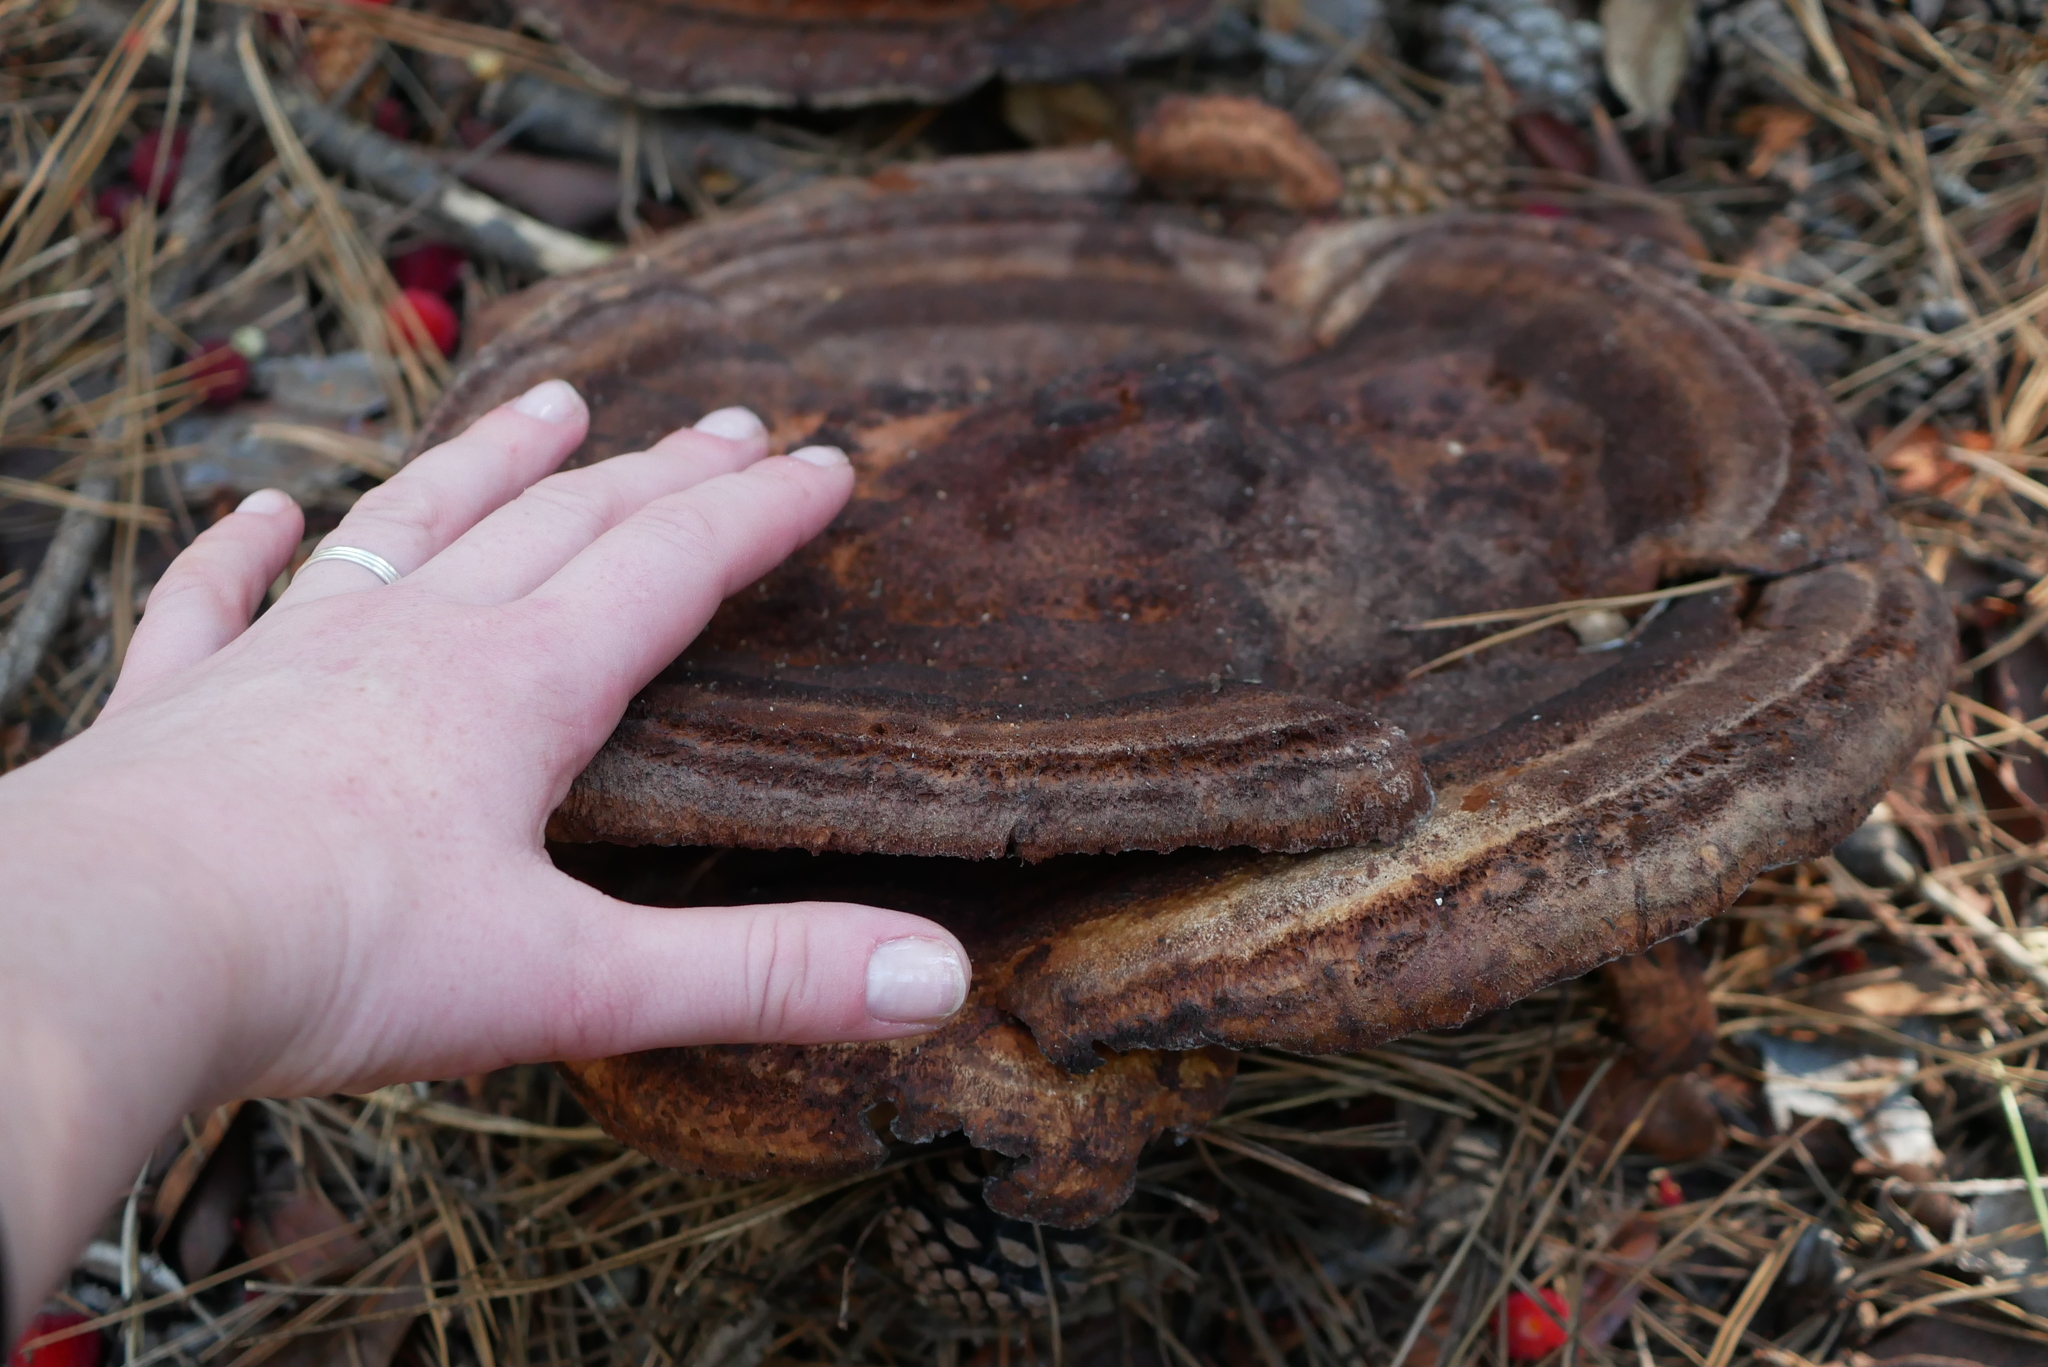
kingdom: Fungi
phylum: Basidiomycota
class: Agaricomycetes
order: Polyporales
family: Laetiporaceae
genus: Phaeolus
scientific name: Phaeolus schweinitzii
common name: Dyer's mazegill
